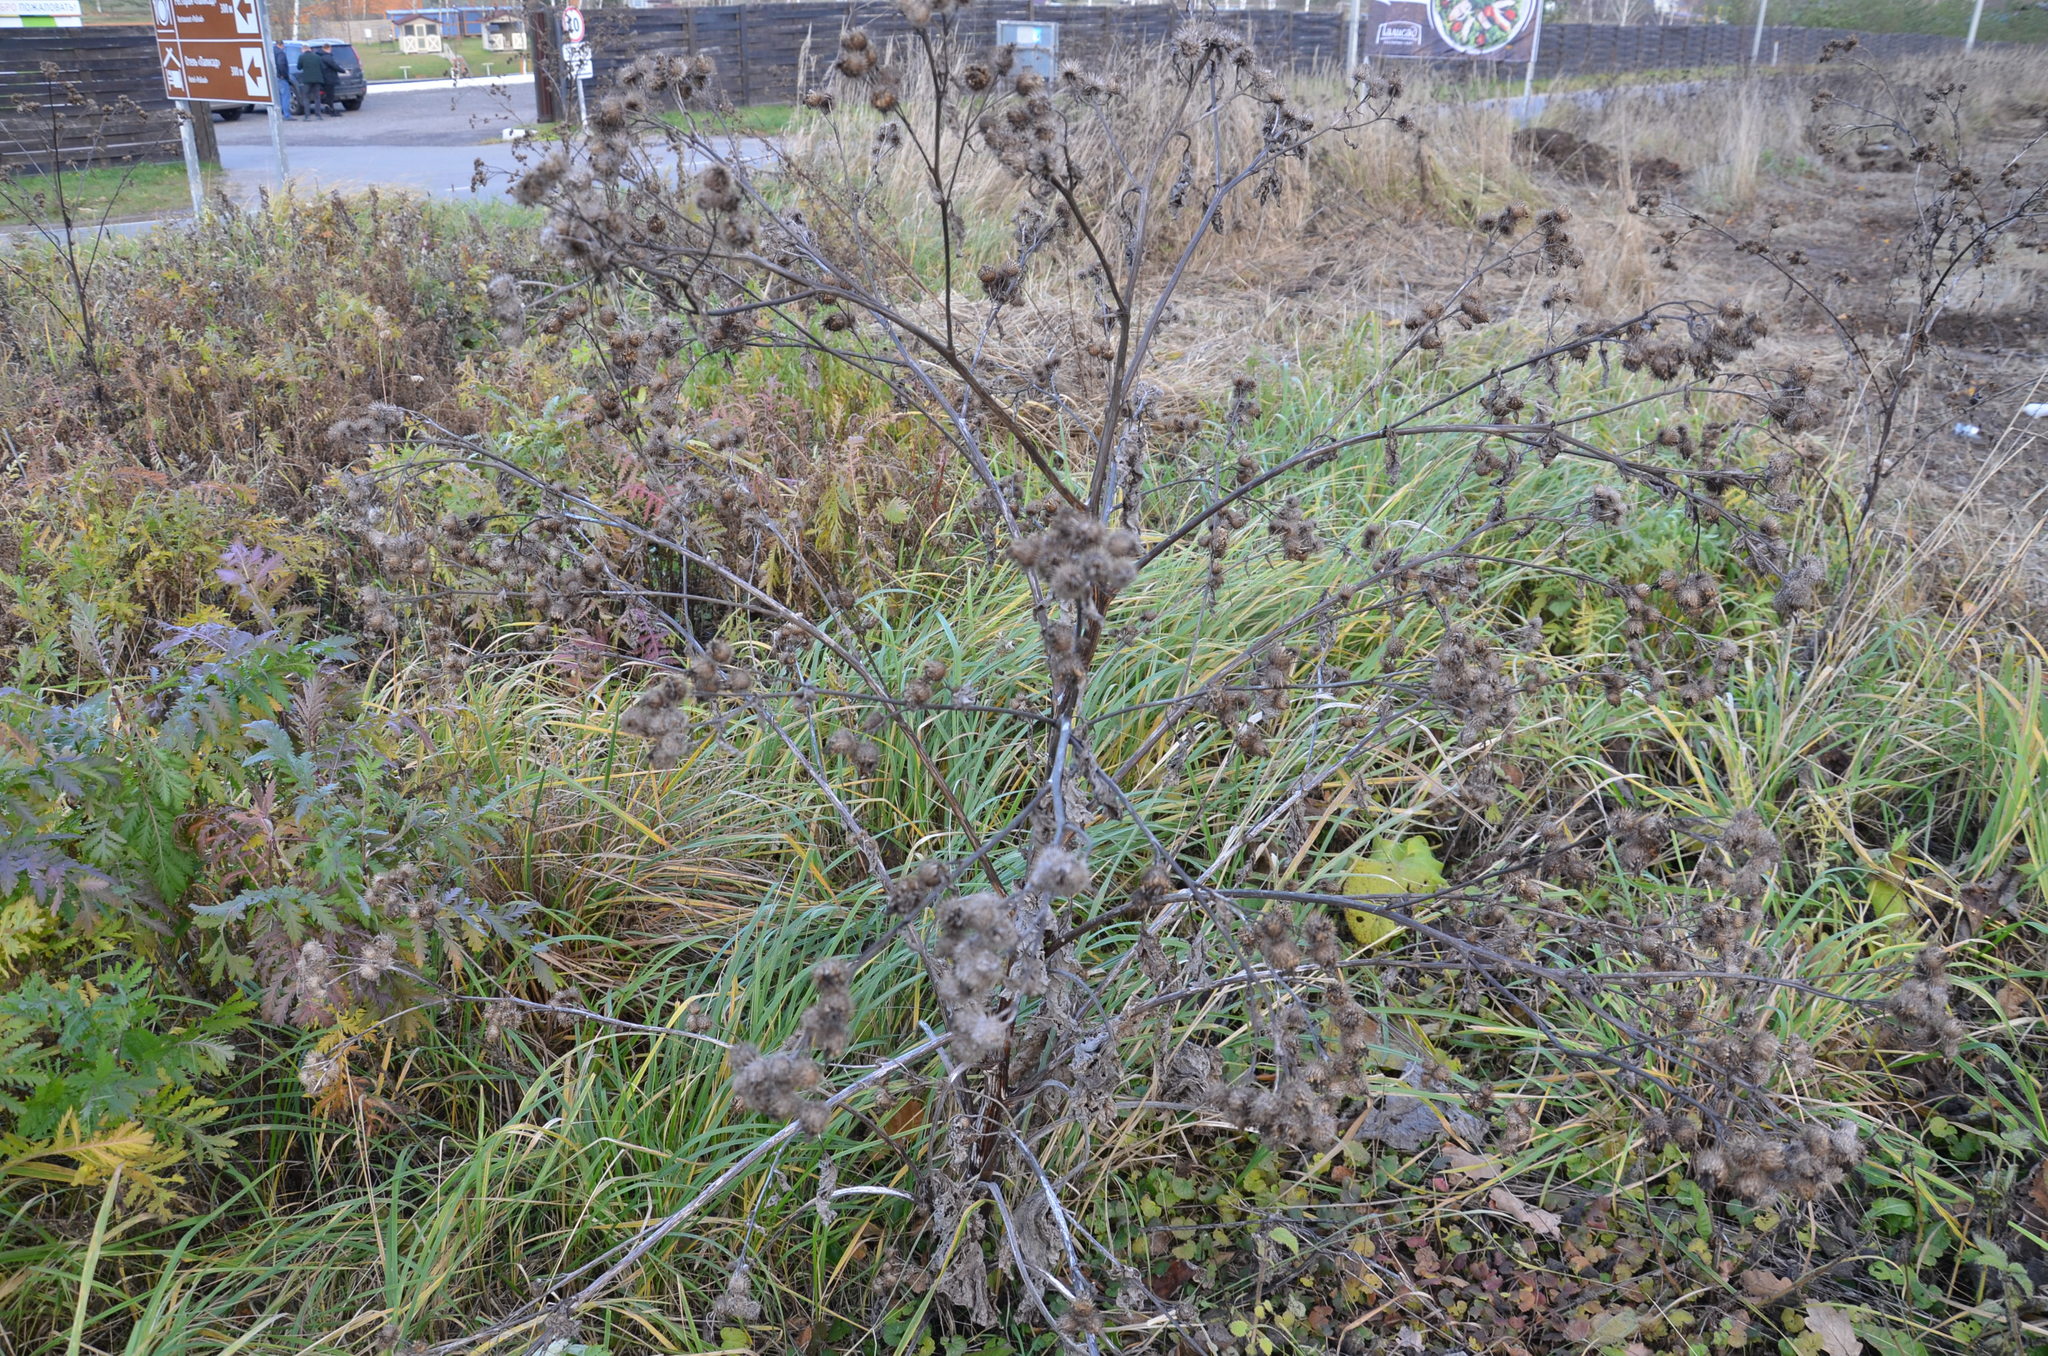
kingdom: Plantae
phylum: Tracheophyta
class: Magnoliopsida
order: Asterales
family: Asteraceae
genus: Arctium
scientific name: Arctium tomentosum
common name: Woolly burdock
